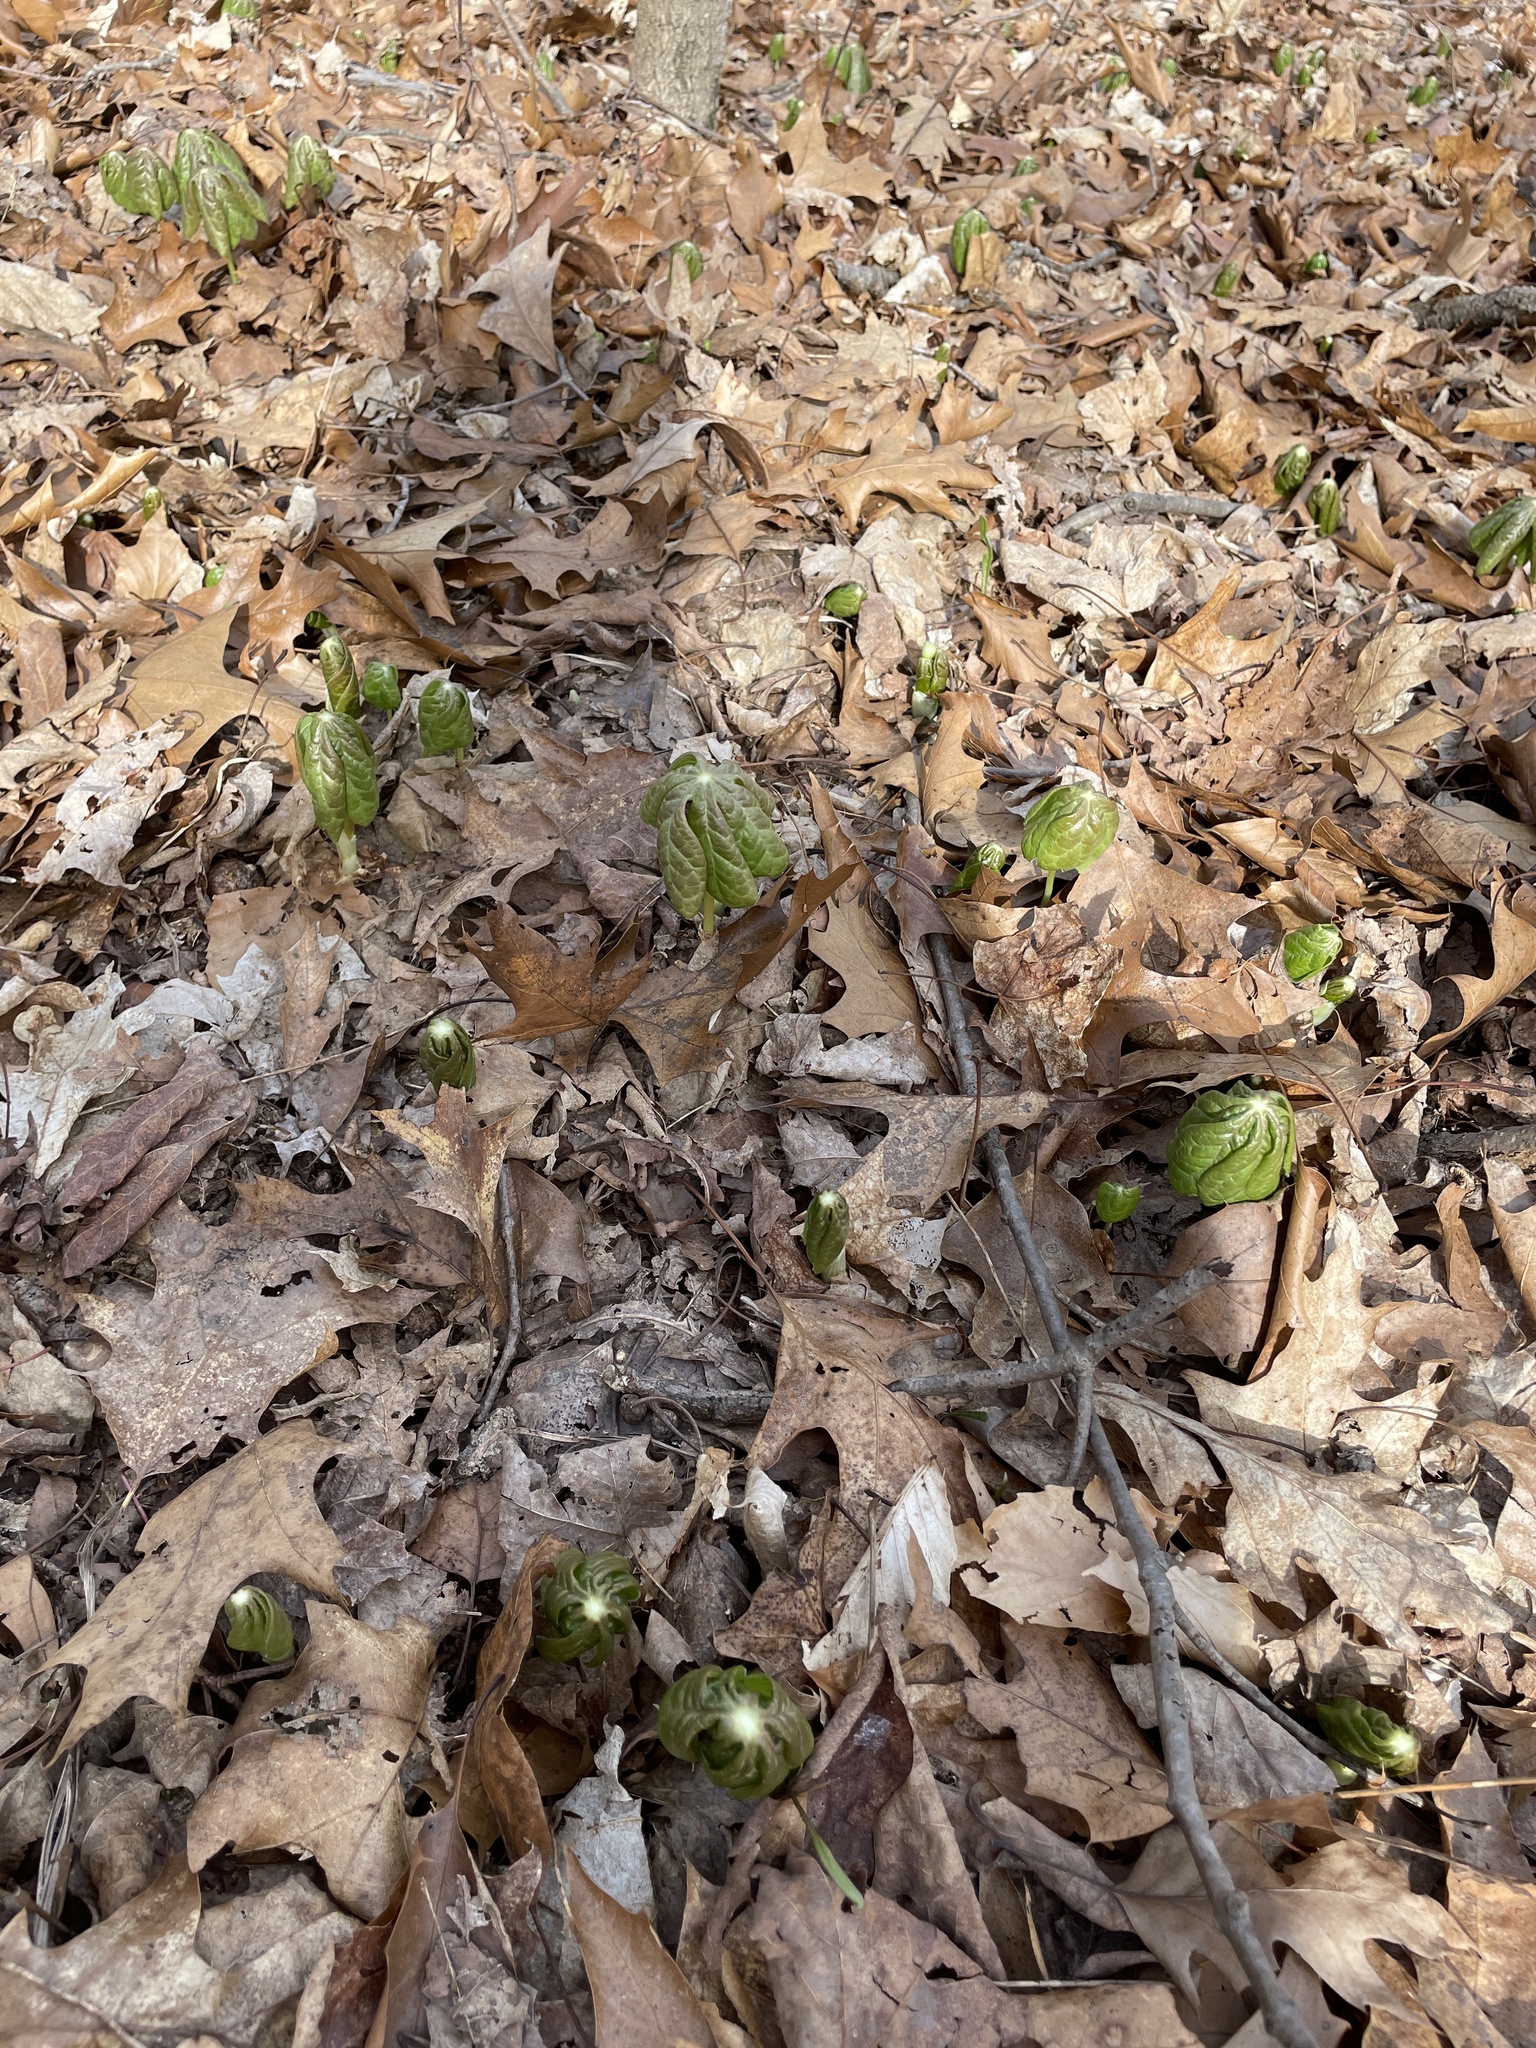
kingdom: Plantae
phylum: Tracheophyta
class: Magnoliopsida
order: Ranunculales
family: Berberidaceae
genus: Podophyllum
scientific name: Podophyllum peltatum
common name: Wild mandrake
